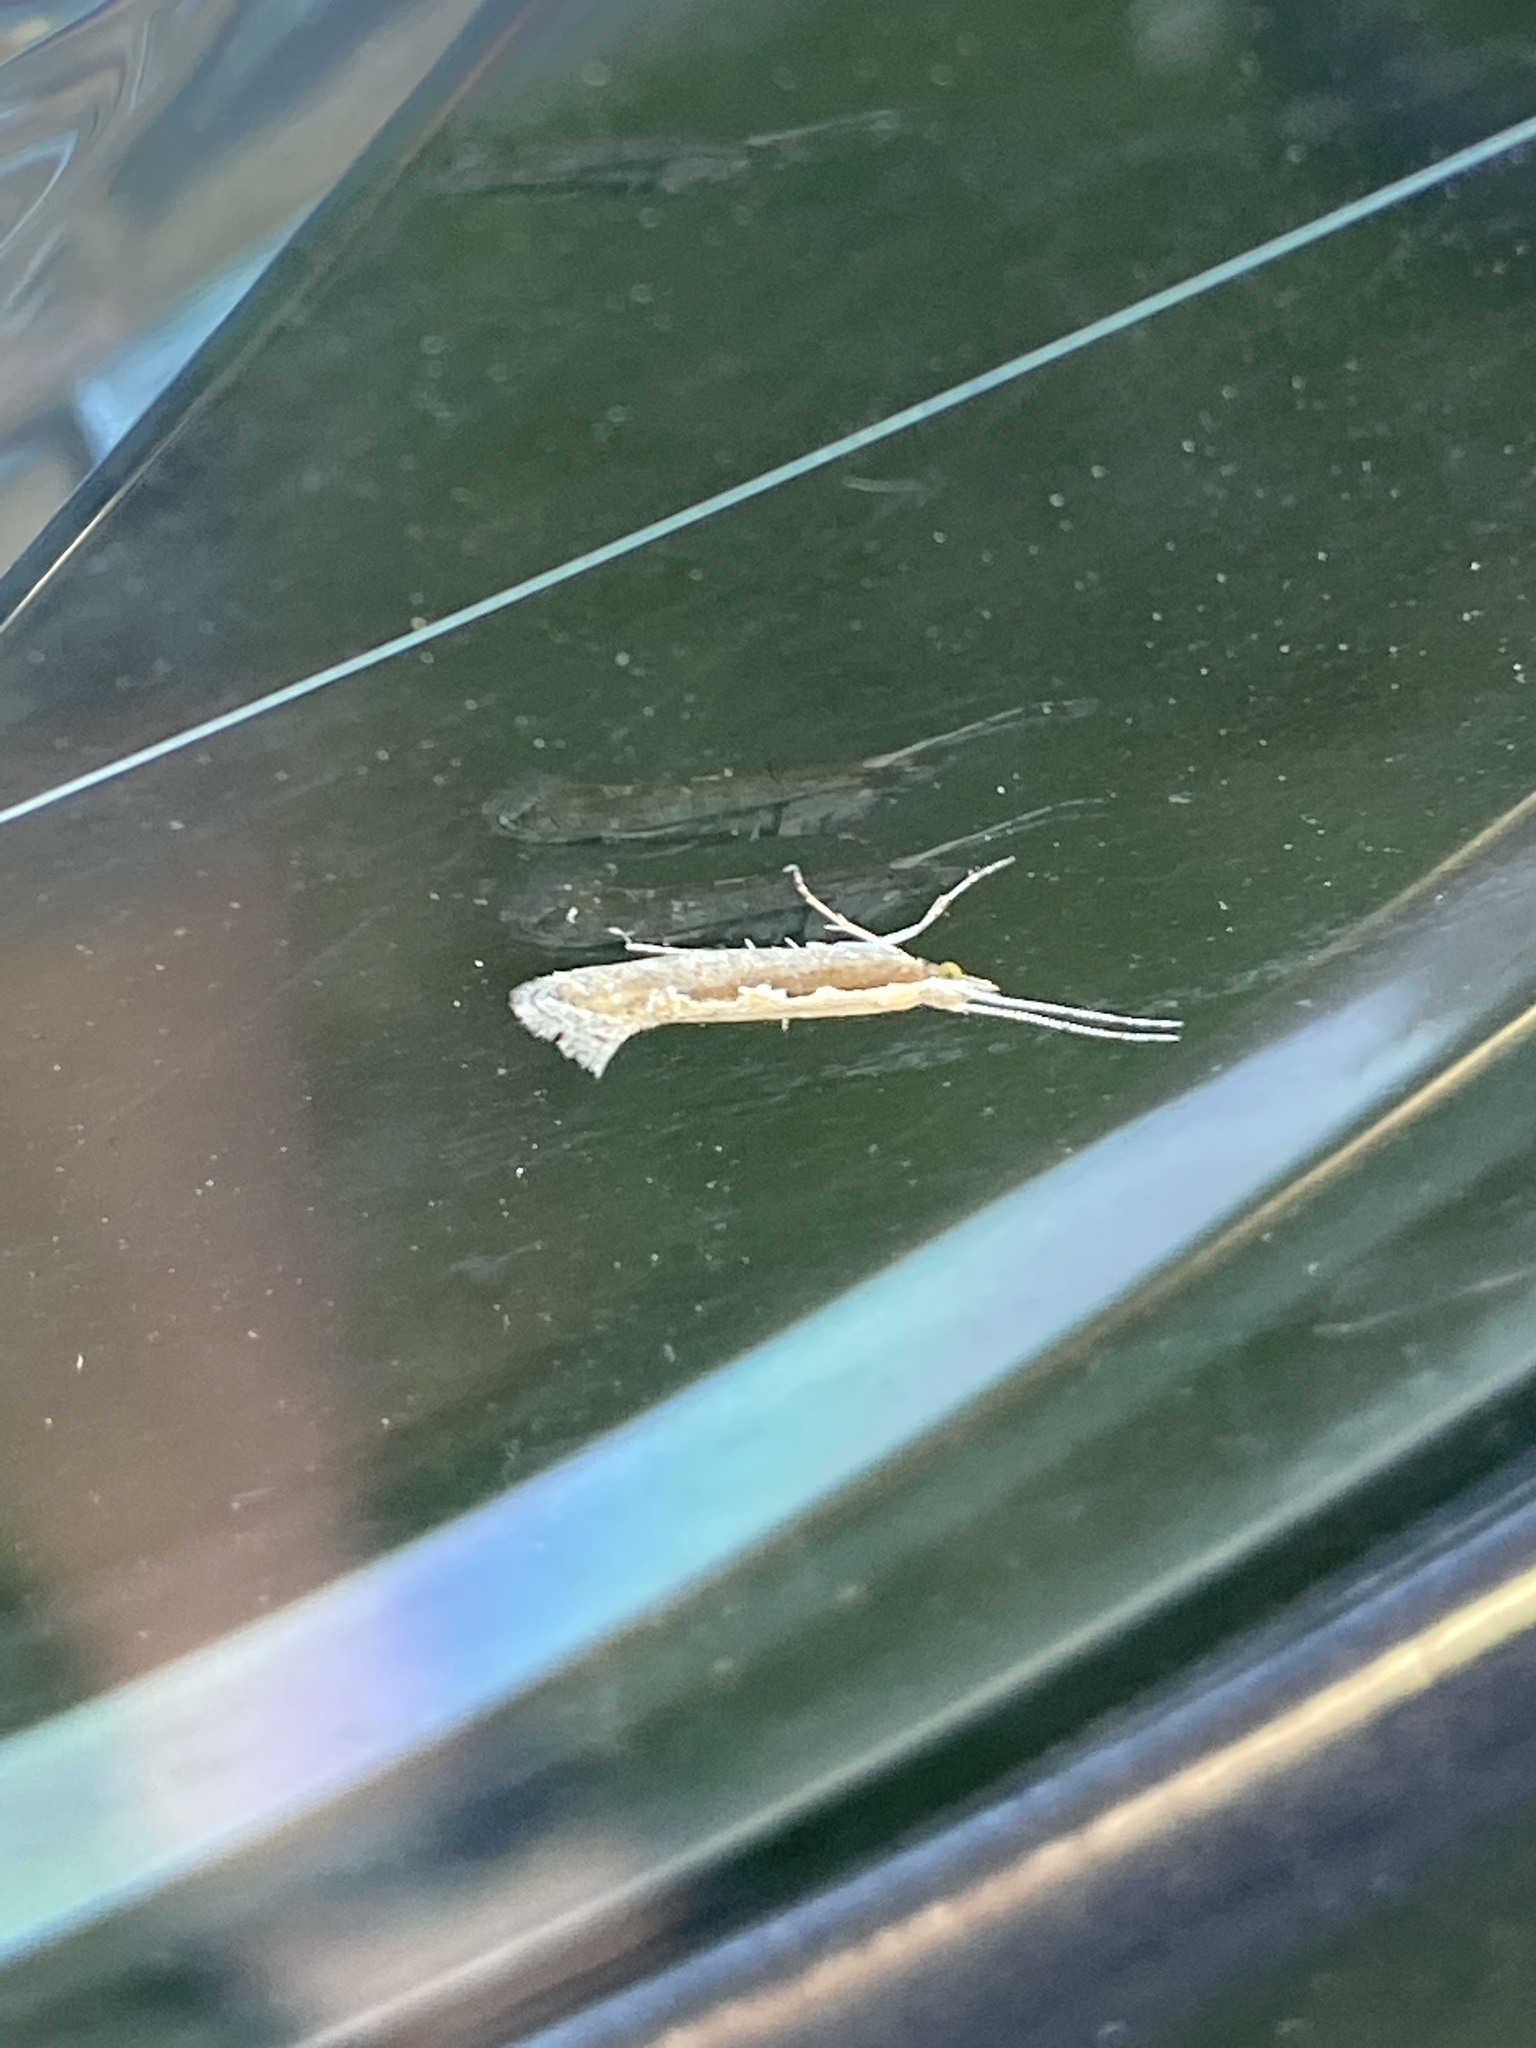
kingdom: Animalia
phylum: Arthropoda
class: Insecta
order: Lepidoptera
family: Plutellidae
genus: Plutella
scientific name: Plutella xylostella
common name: Diamond-back moth
